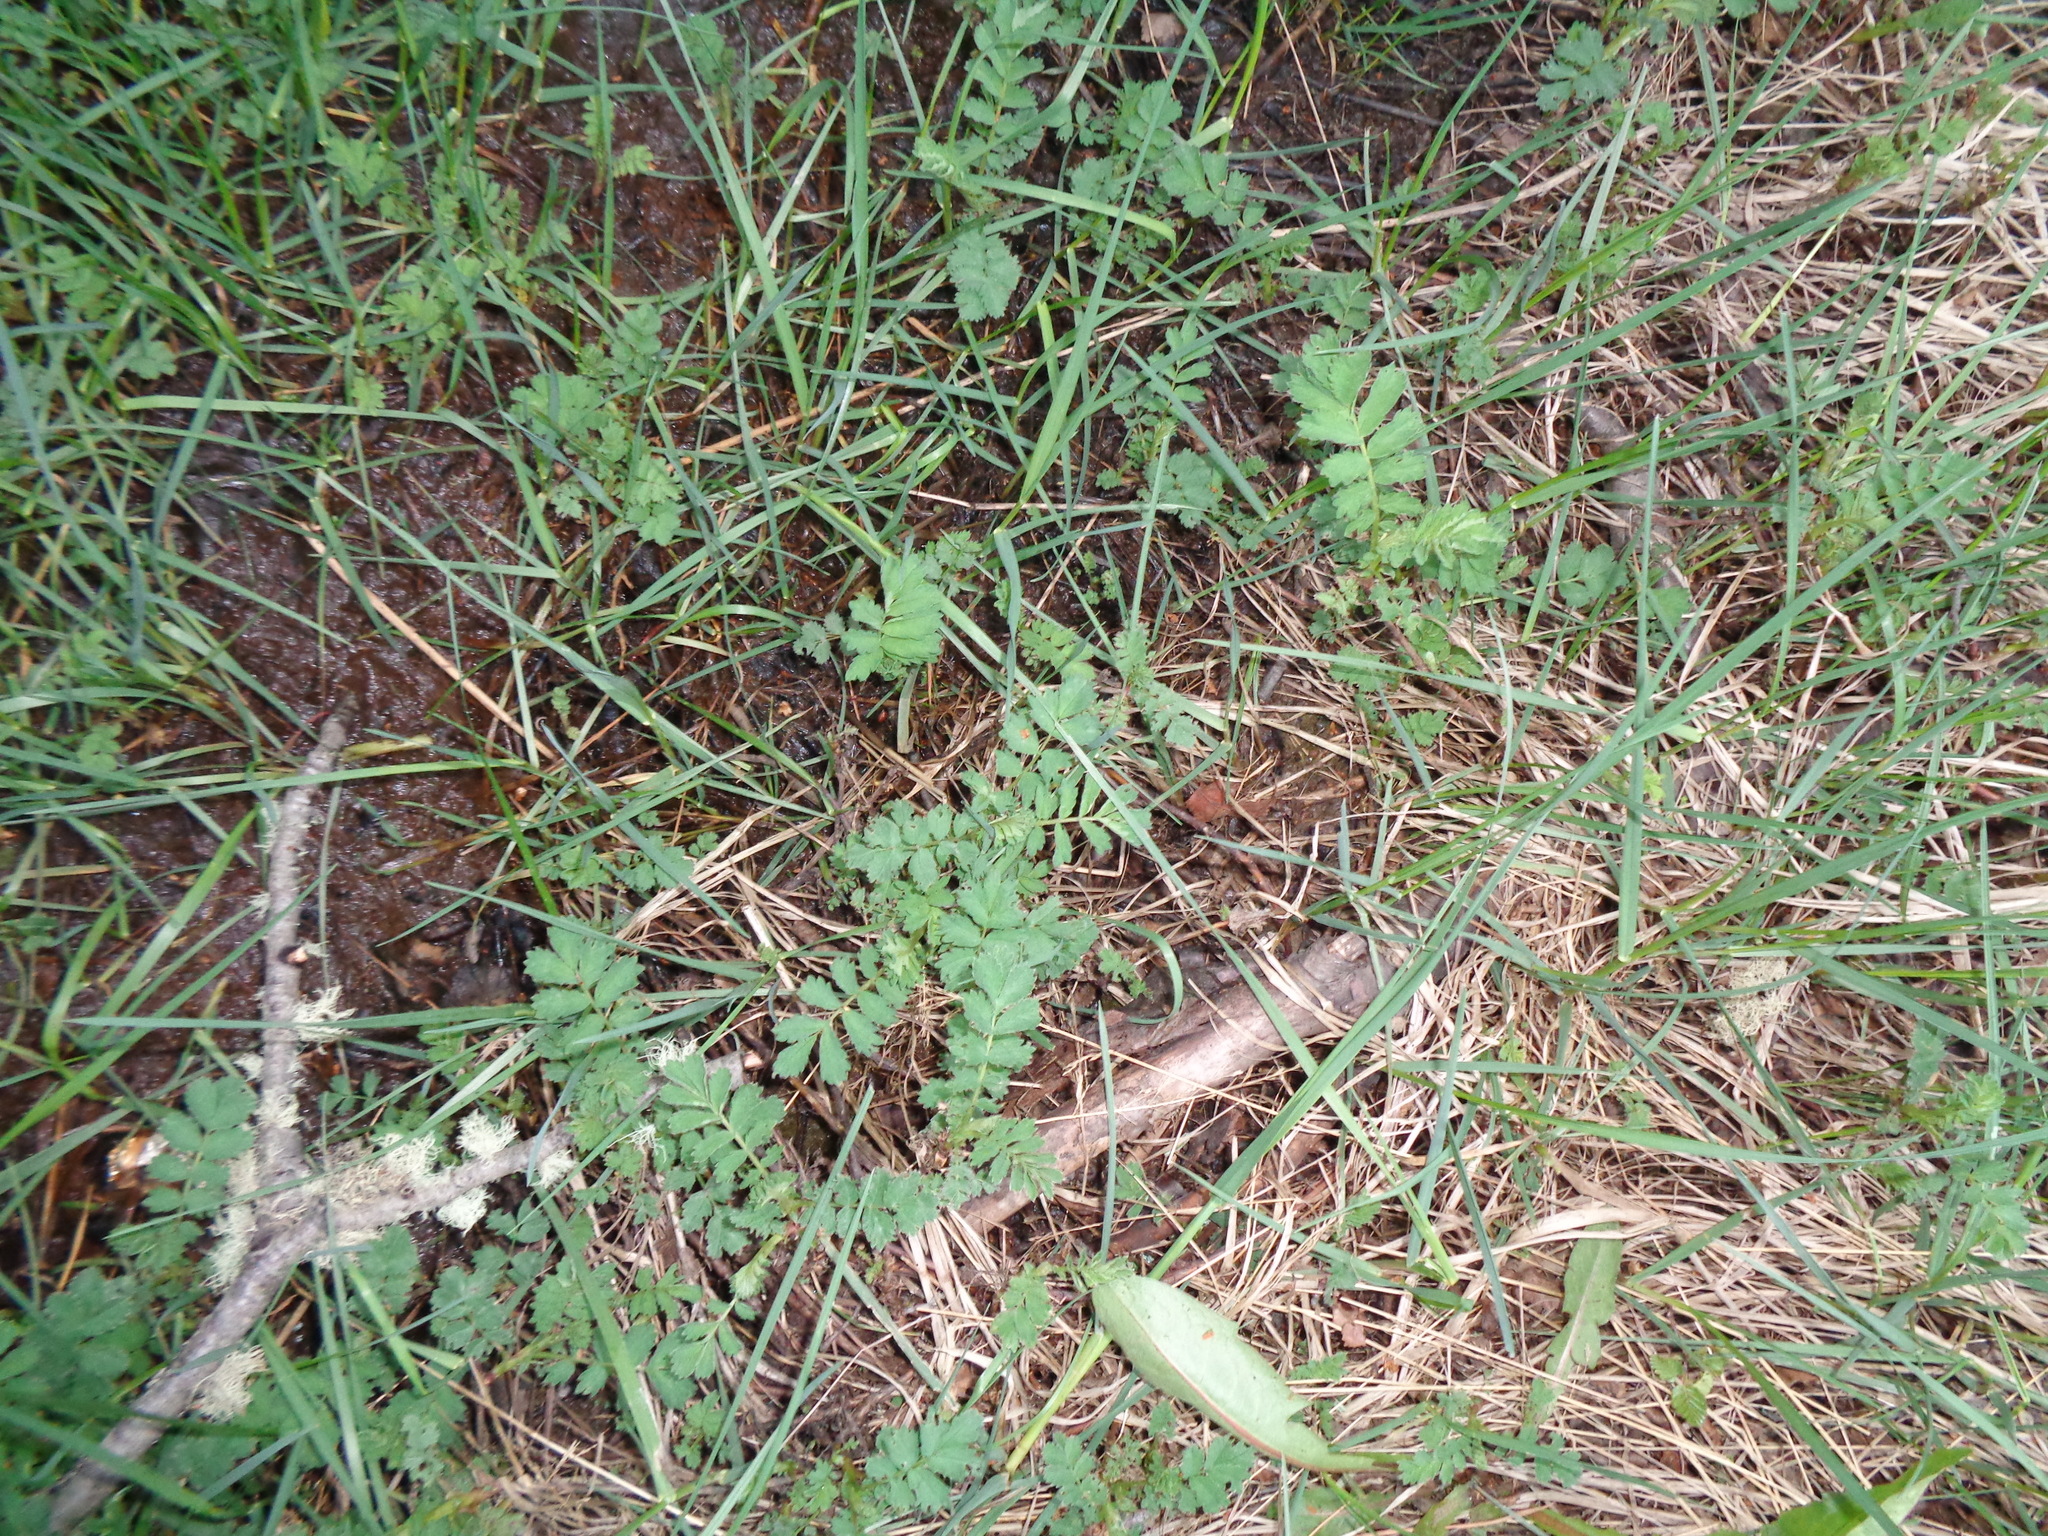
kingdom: Plantae
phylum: Tracheophyta
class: Magnoliopsida
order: Rosales
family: Rosaceae
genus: Acaena
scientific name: Acaena ovalifolia
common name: Two-spined acaena
